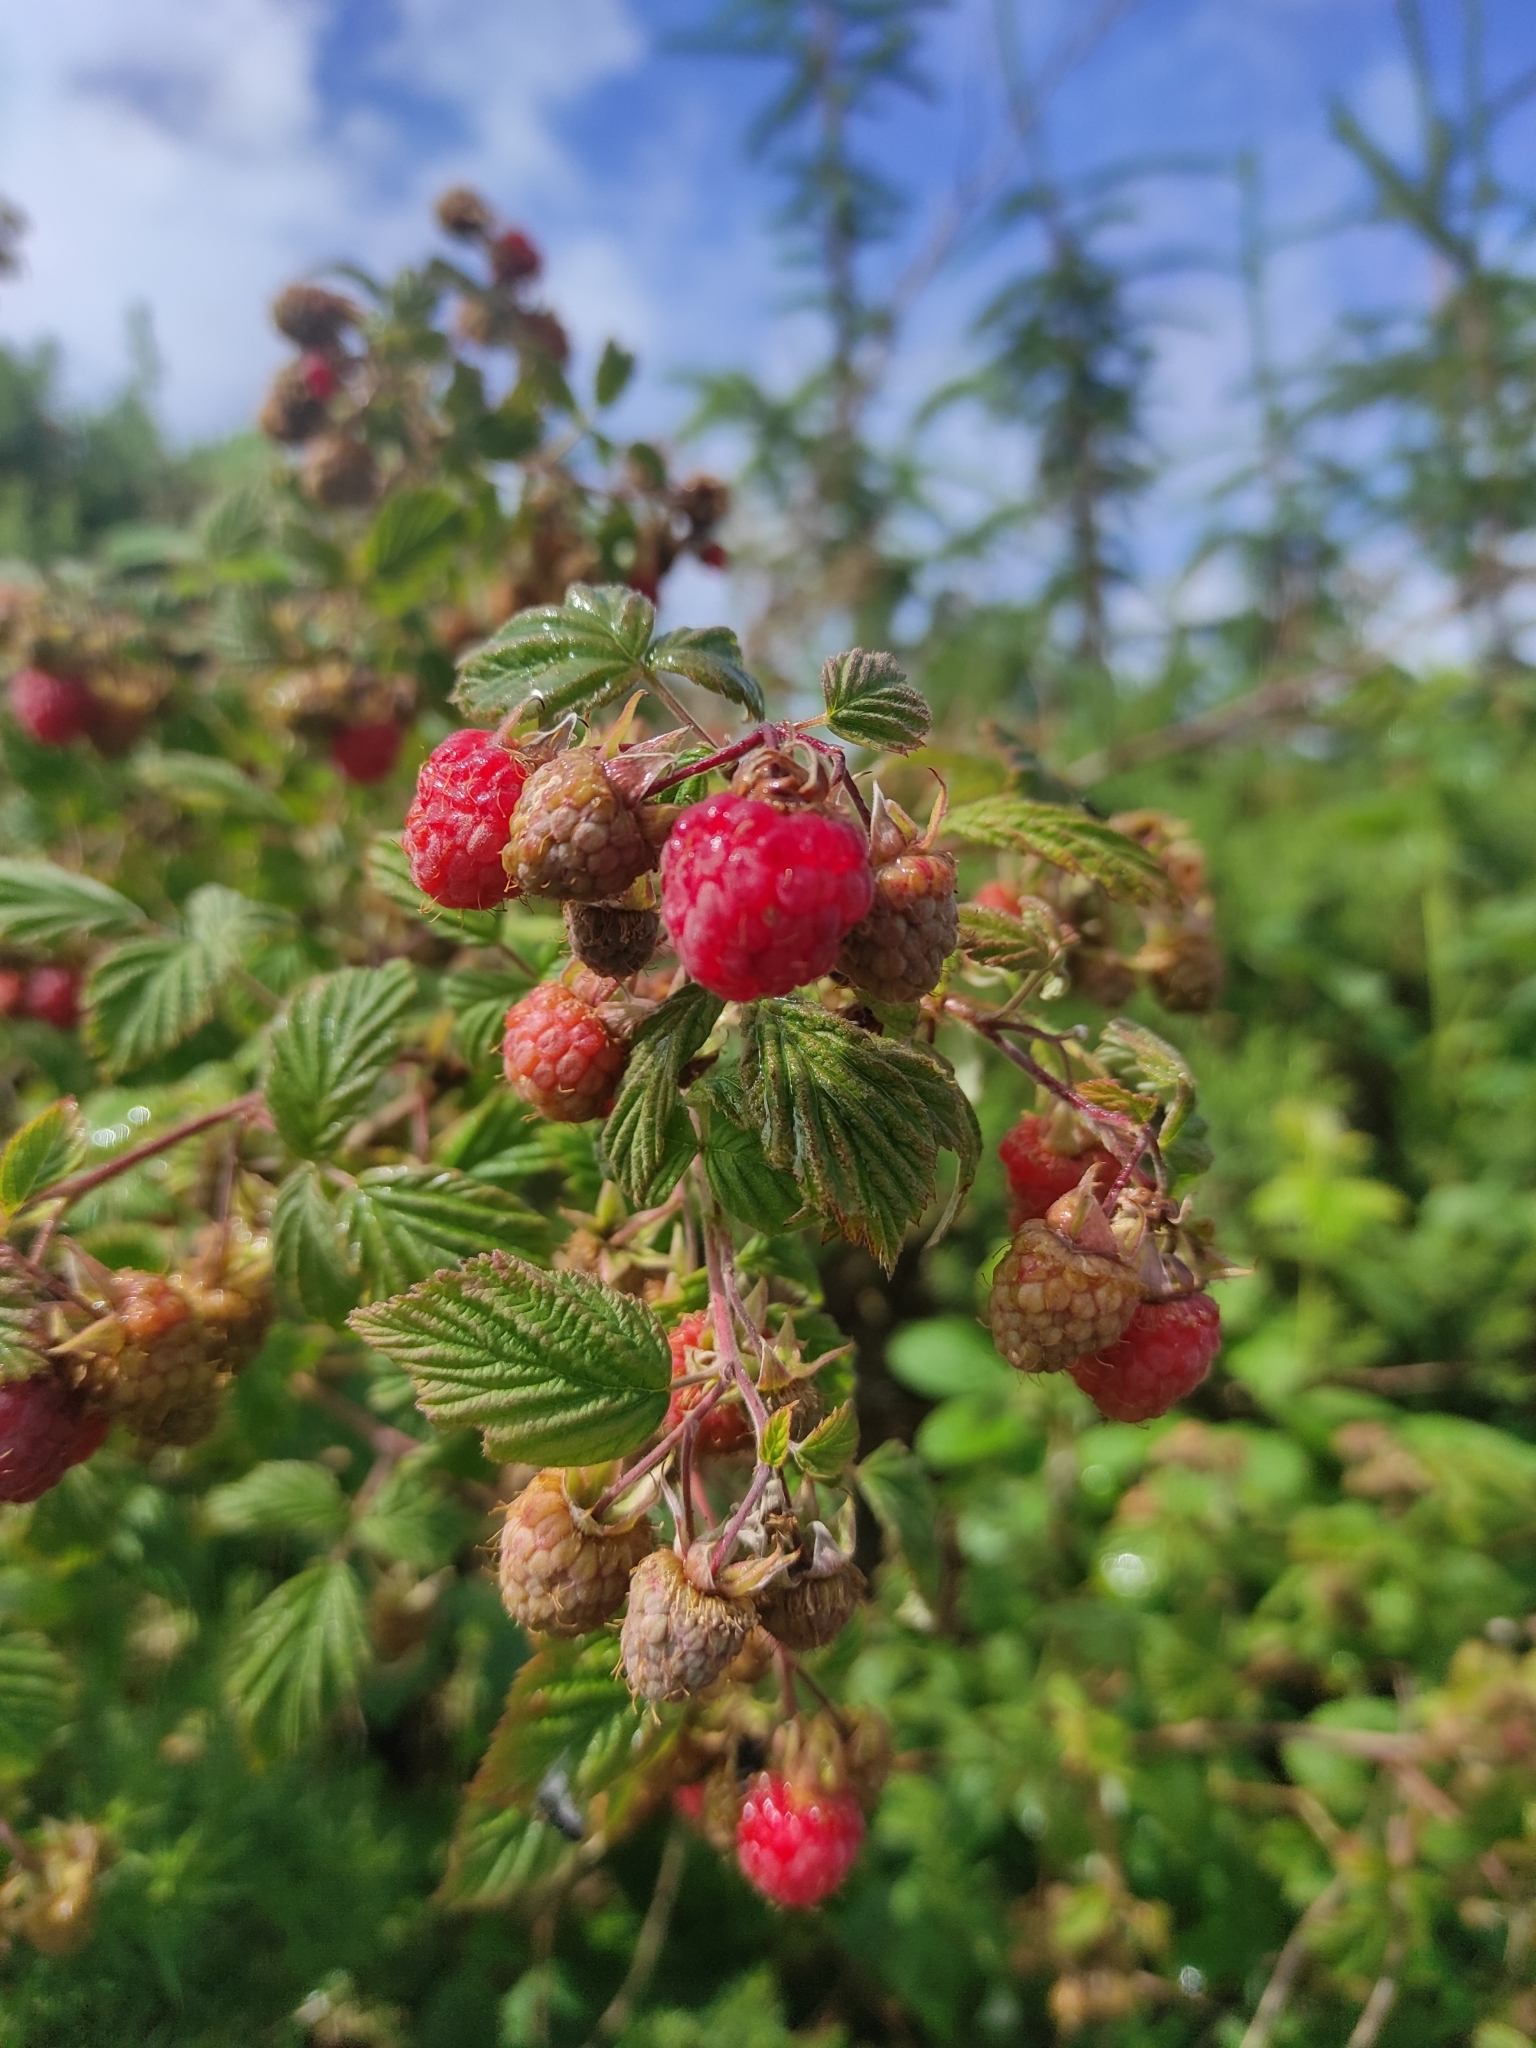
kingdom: Plantae
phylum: Tracheophyta
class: Magnoliopsida
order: Rosales
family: Rosaceae
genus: Rubus
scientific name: Rubus idaeus
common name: Raspberry
